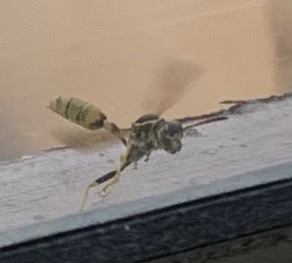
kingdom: Animalia
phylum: Arthropoda
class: Insecta
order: Hymenoptera
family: Vespidae
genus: Mischocyttarus
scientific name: Mischocyttarus flavitarsis
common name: Wasp
